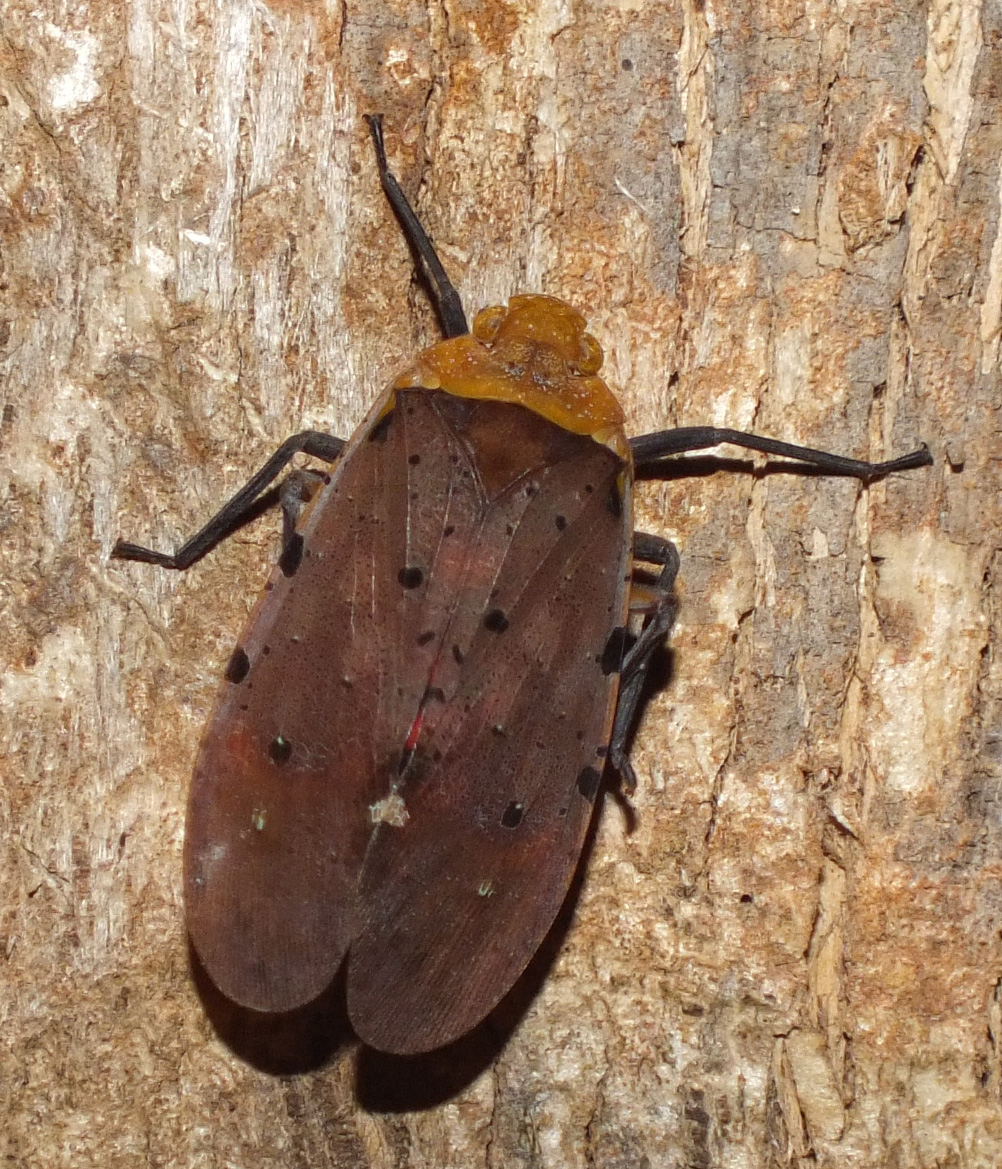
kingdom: Animalia
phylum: Arthropoda
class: Insecta
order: Hemiptera
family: Fulgoridae
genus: Penthicodes
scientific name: Penthicodes atomaria
